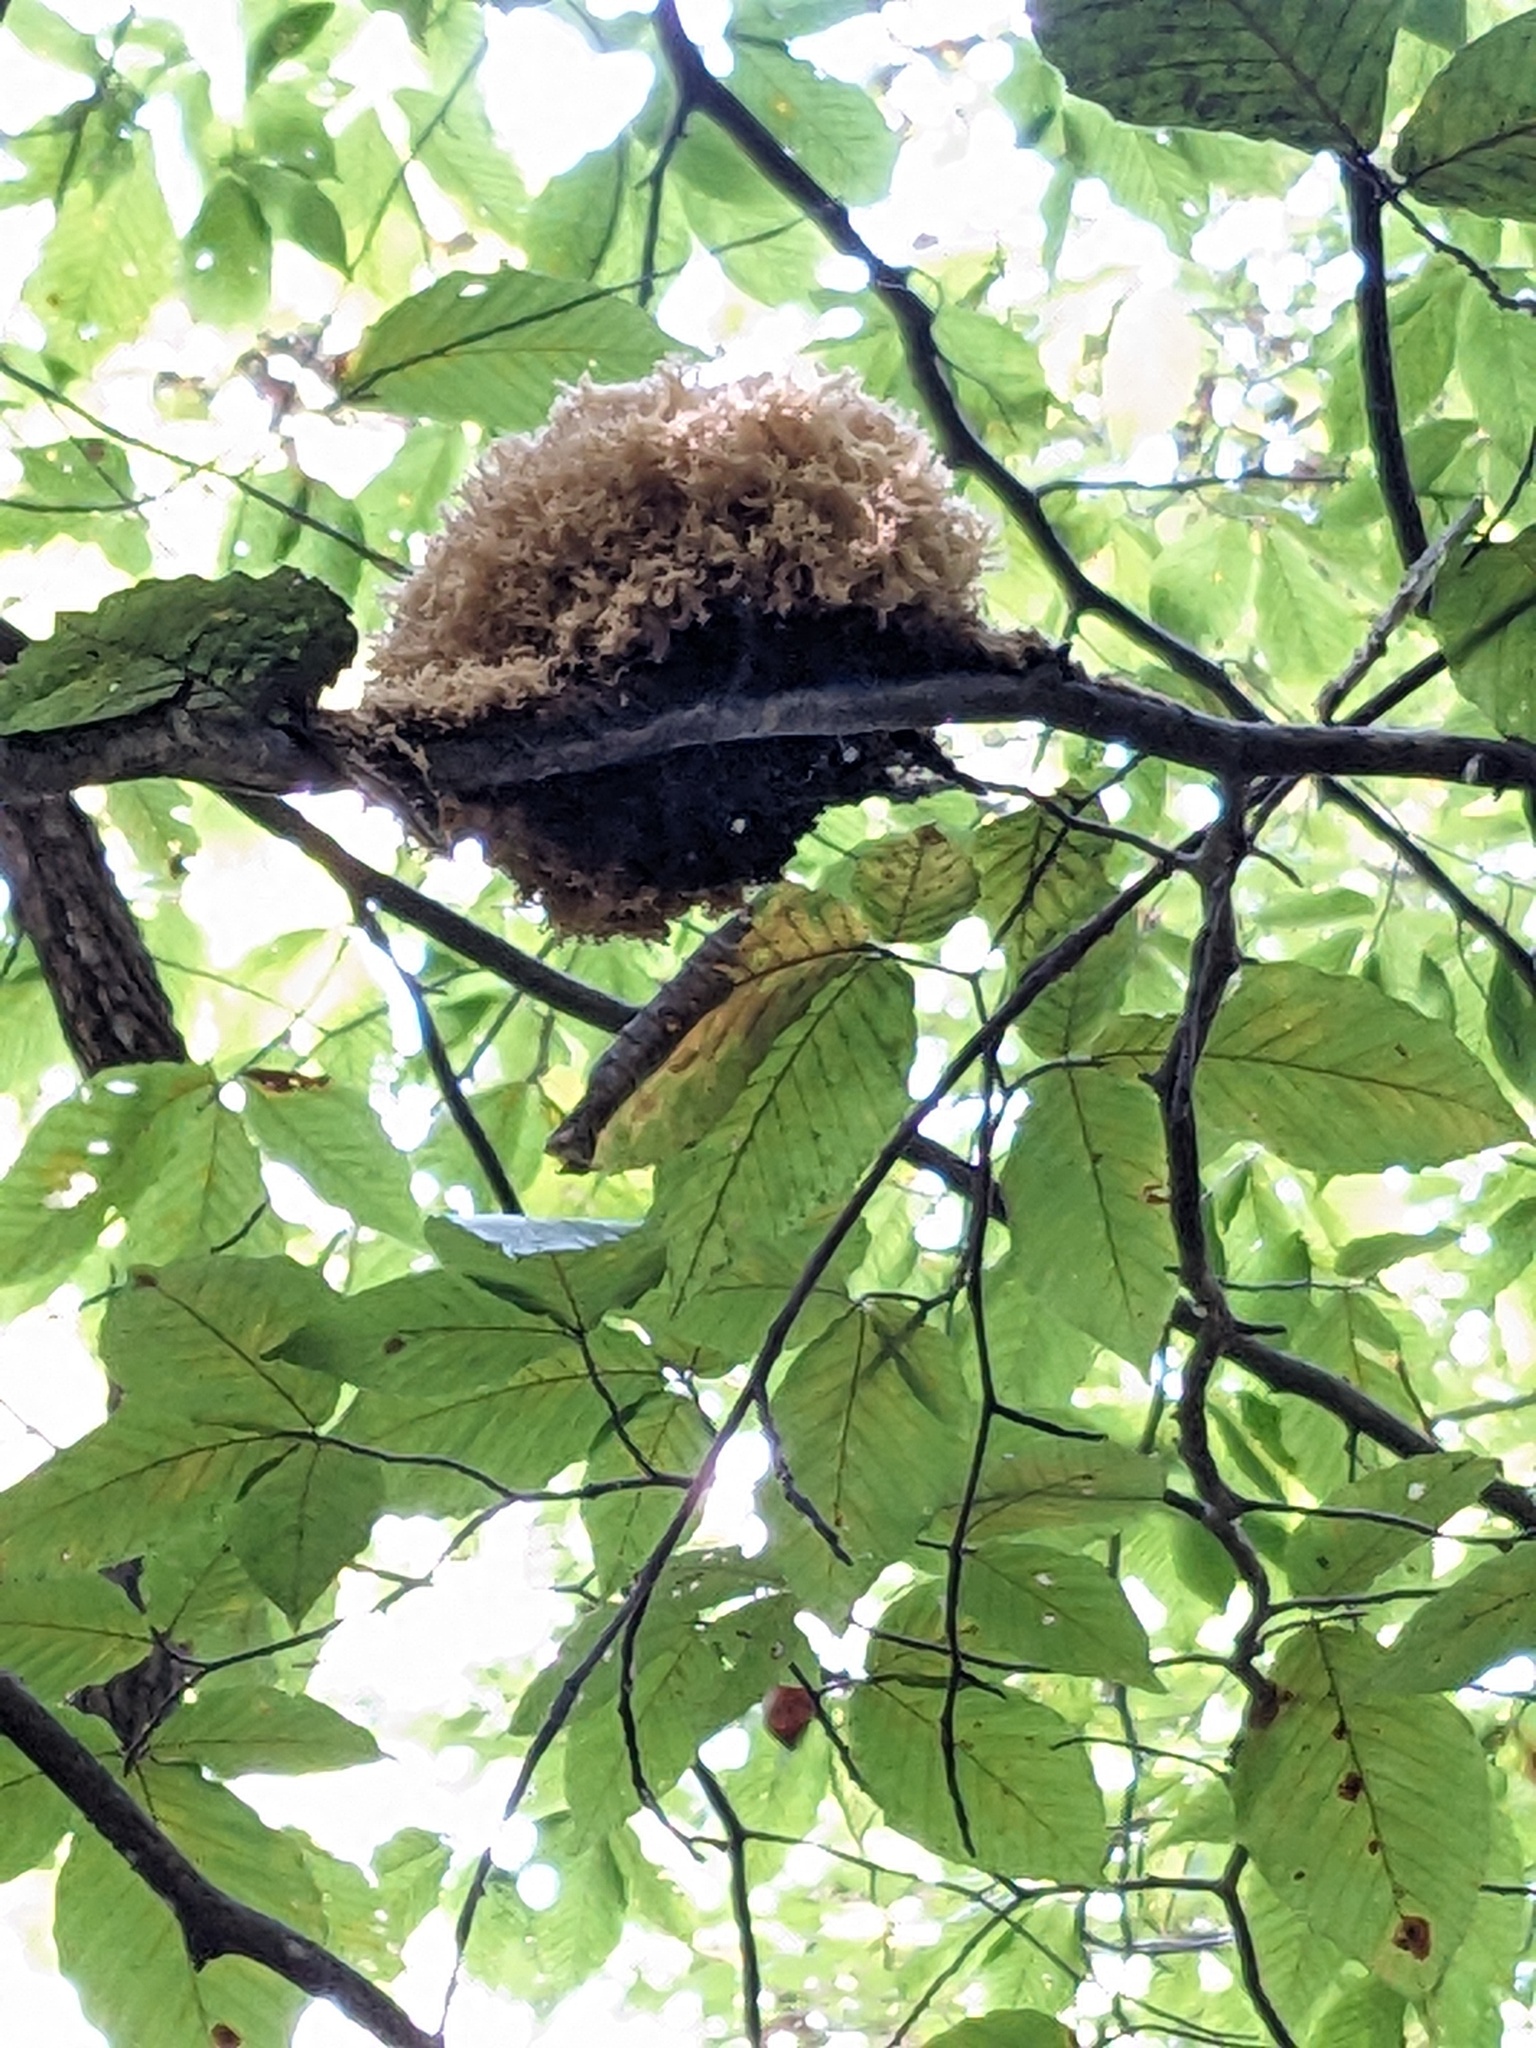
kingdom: Fungi
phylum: Ascomycota
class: Dothideomycetes
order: Capnodiales
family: Capnodiaceae
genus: Scorias
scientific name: Scorias spongiosa
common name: Black sooty mold
